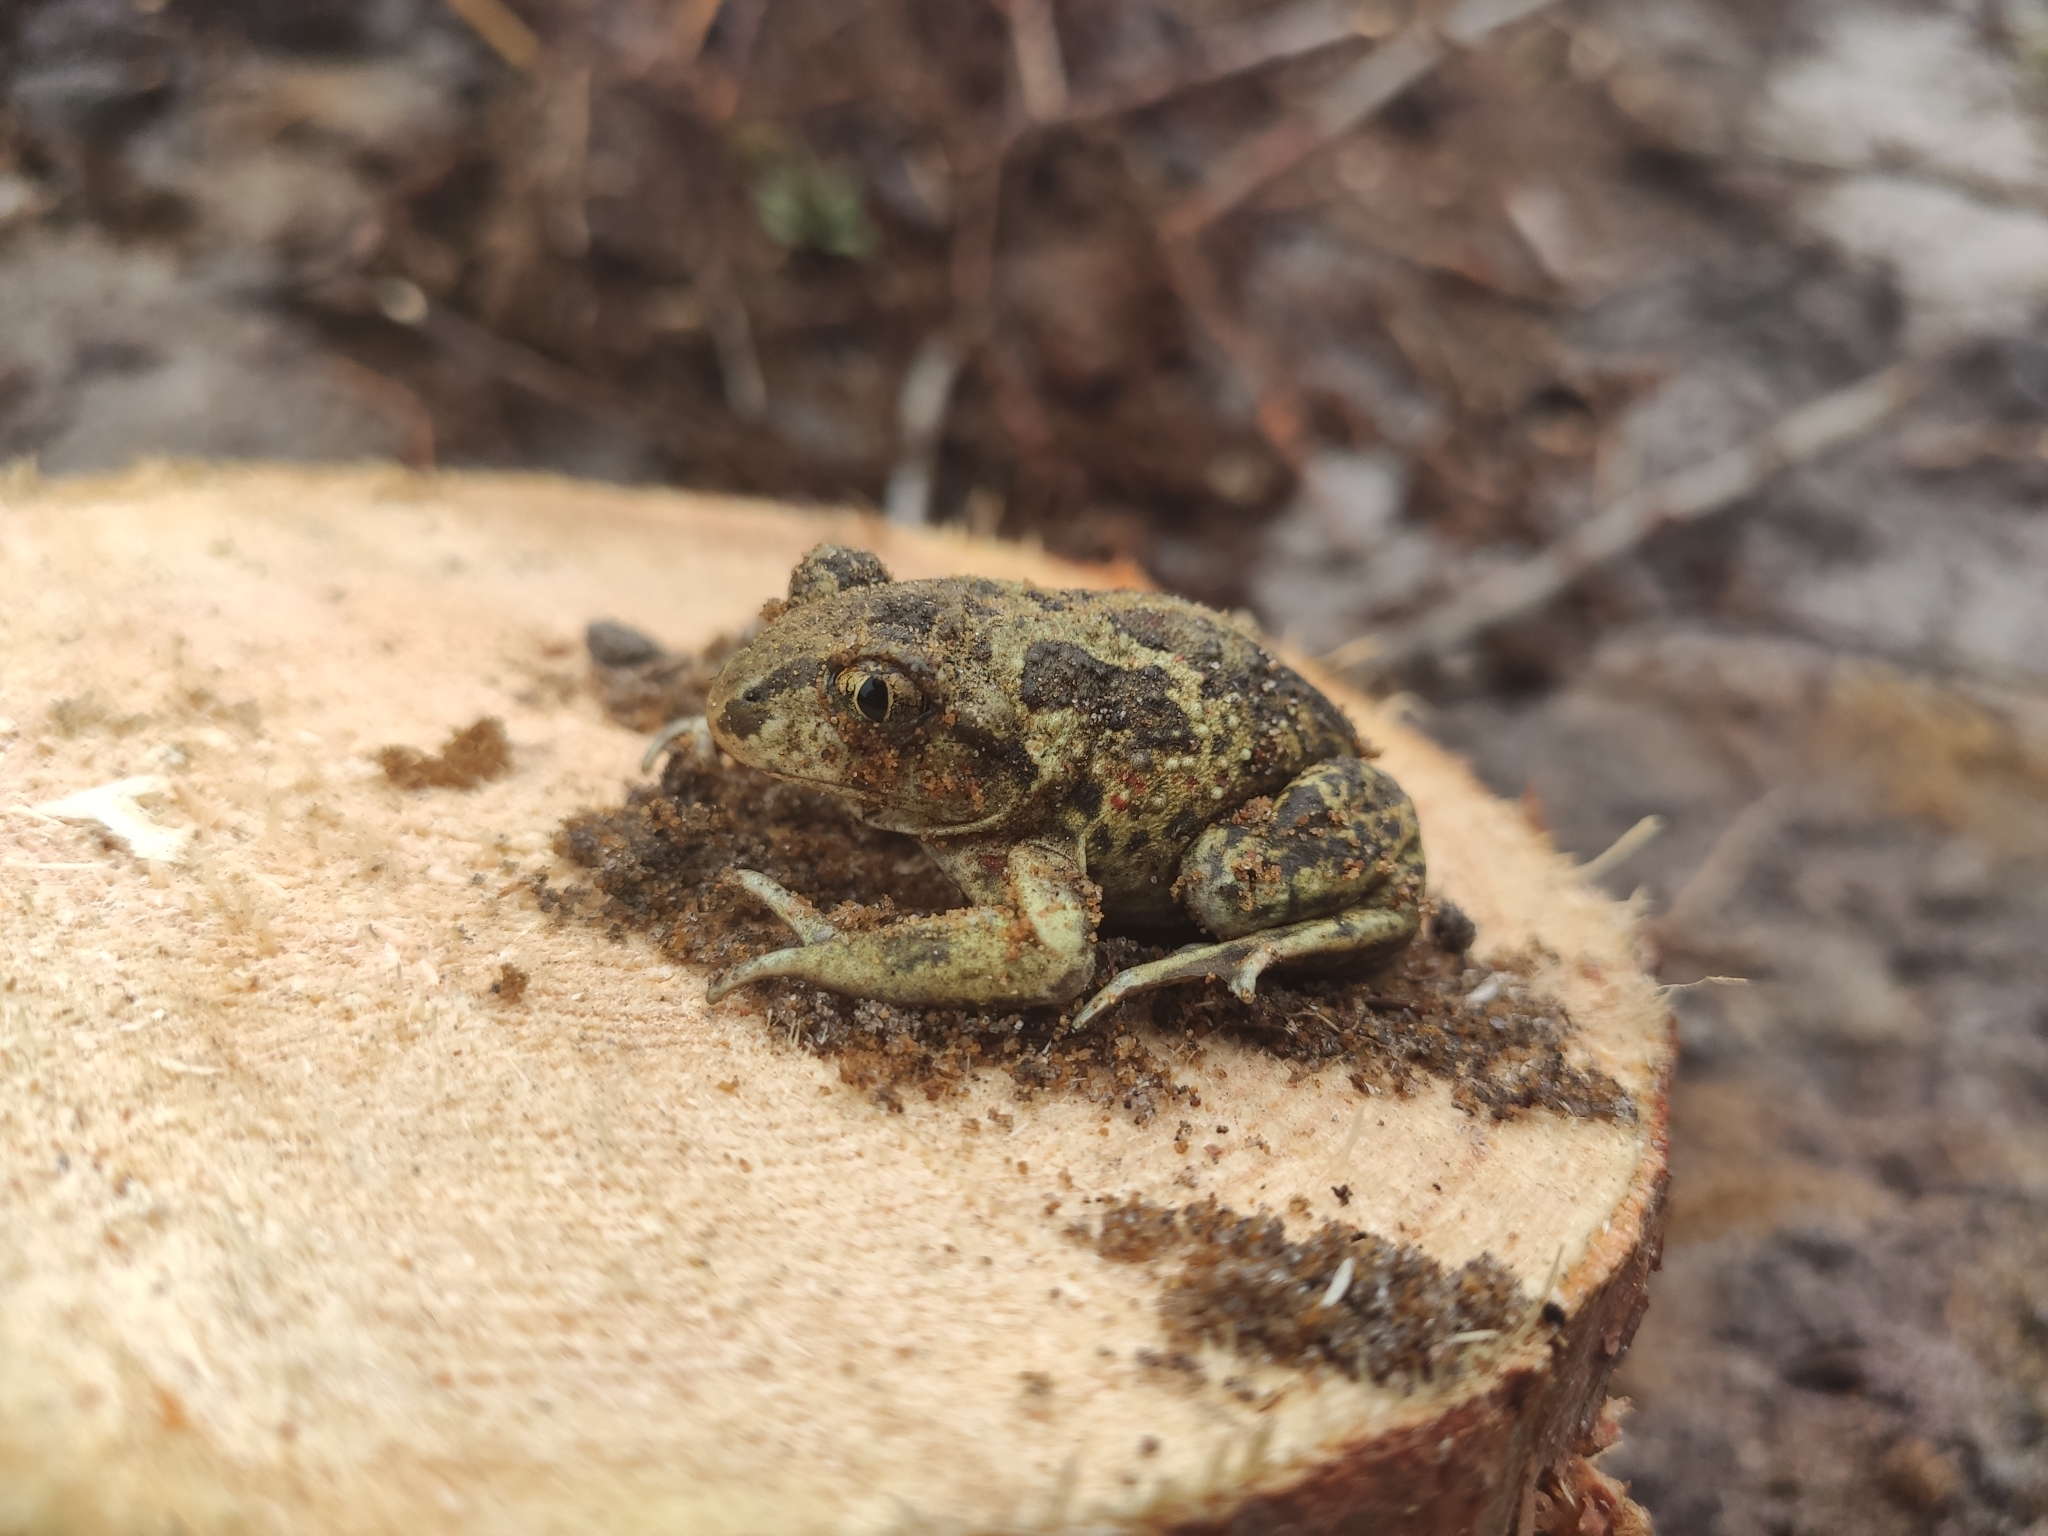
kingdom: Animalia
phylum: Chordata
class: Amphibia
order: Anura
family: Pelobatidae
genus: Pelobates
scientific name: Pelobates fuscus
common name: Common eurasian spadefoot toad
